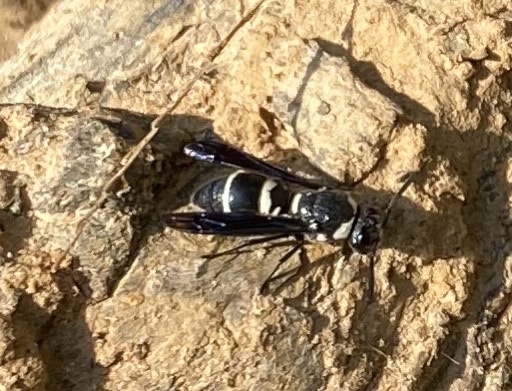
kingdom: Animalia
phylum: Arthropoda
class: Insecta
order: Hymenoptera
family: Eumenidae
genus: Euodynerus
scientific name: Euodynerus megaera
